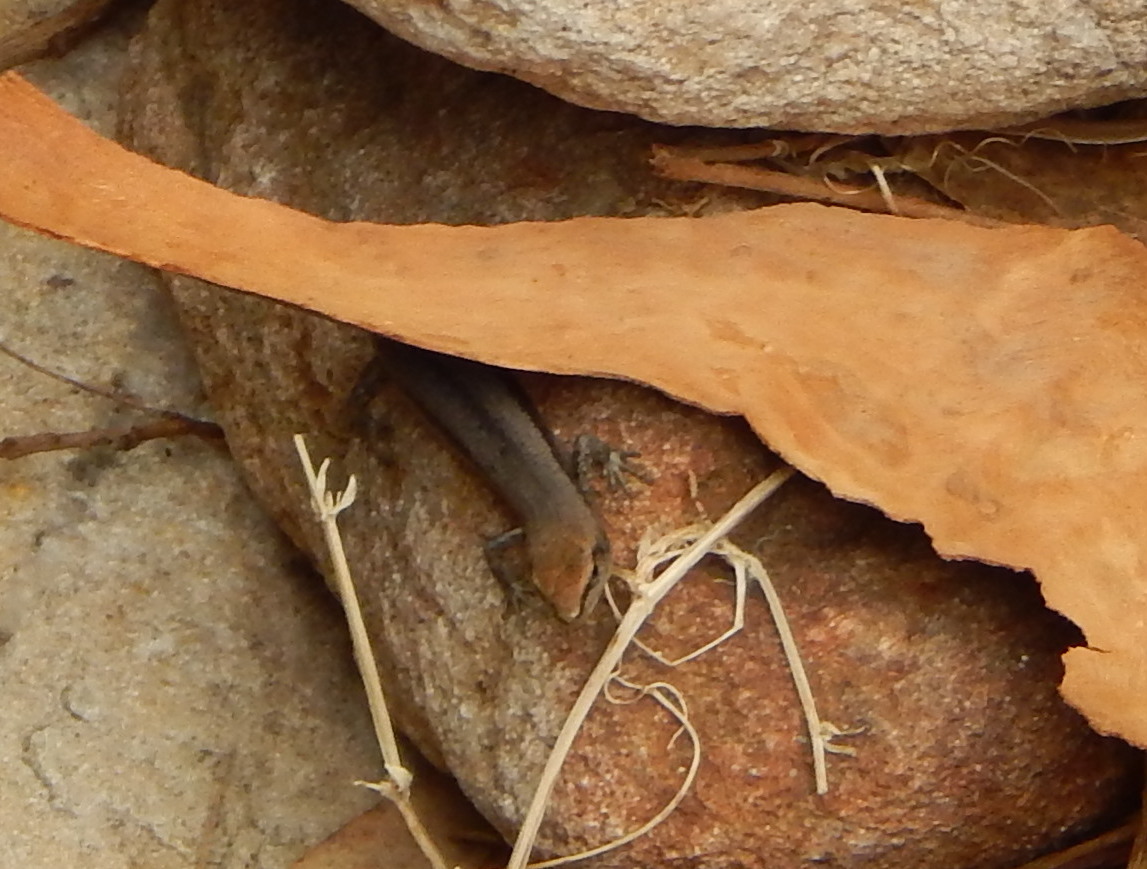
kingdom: Animalia
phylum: Chordata
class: Squamata
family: Scincidae
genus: Lampropholis
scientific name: Lampropholis guichenoti
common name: Garden skink
